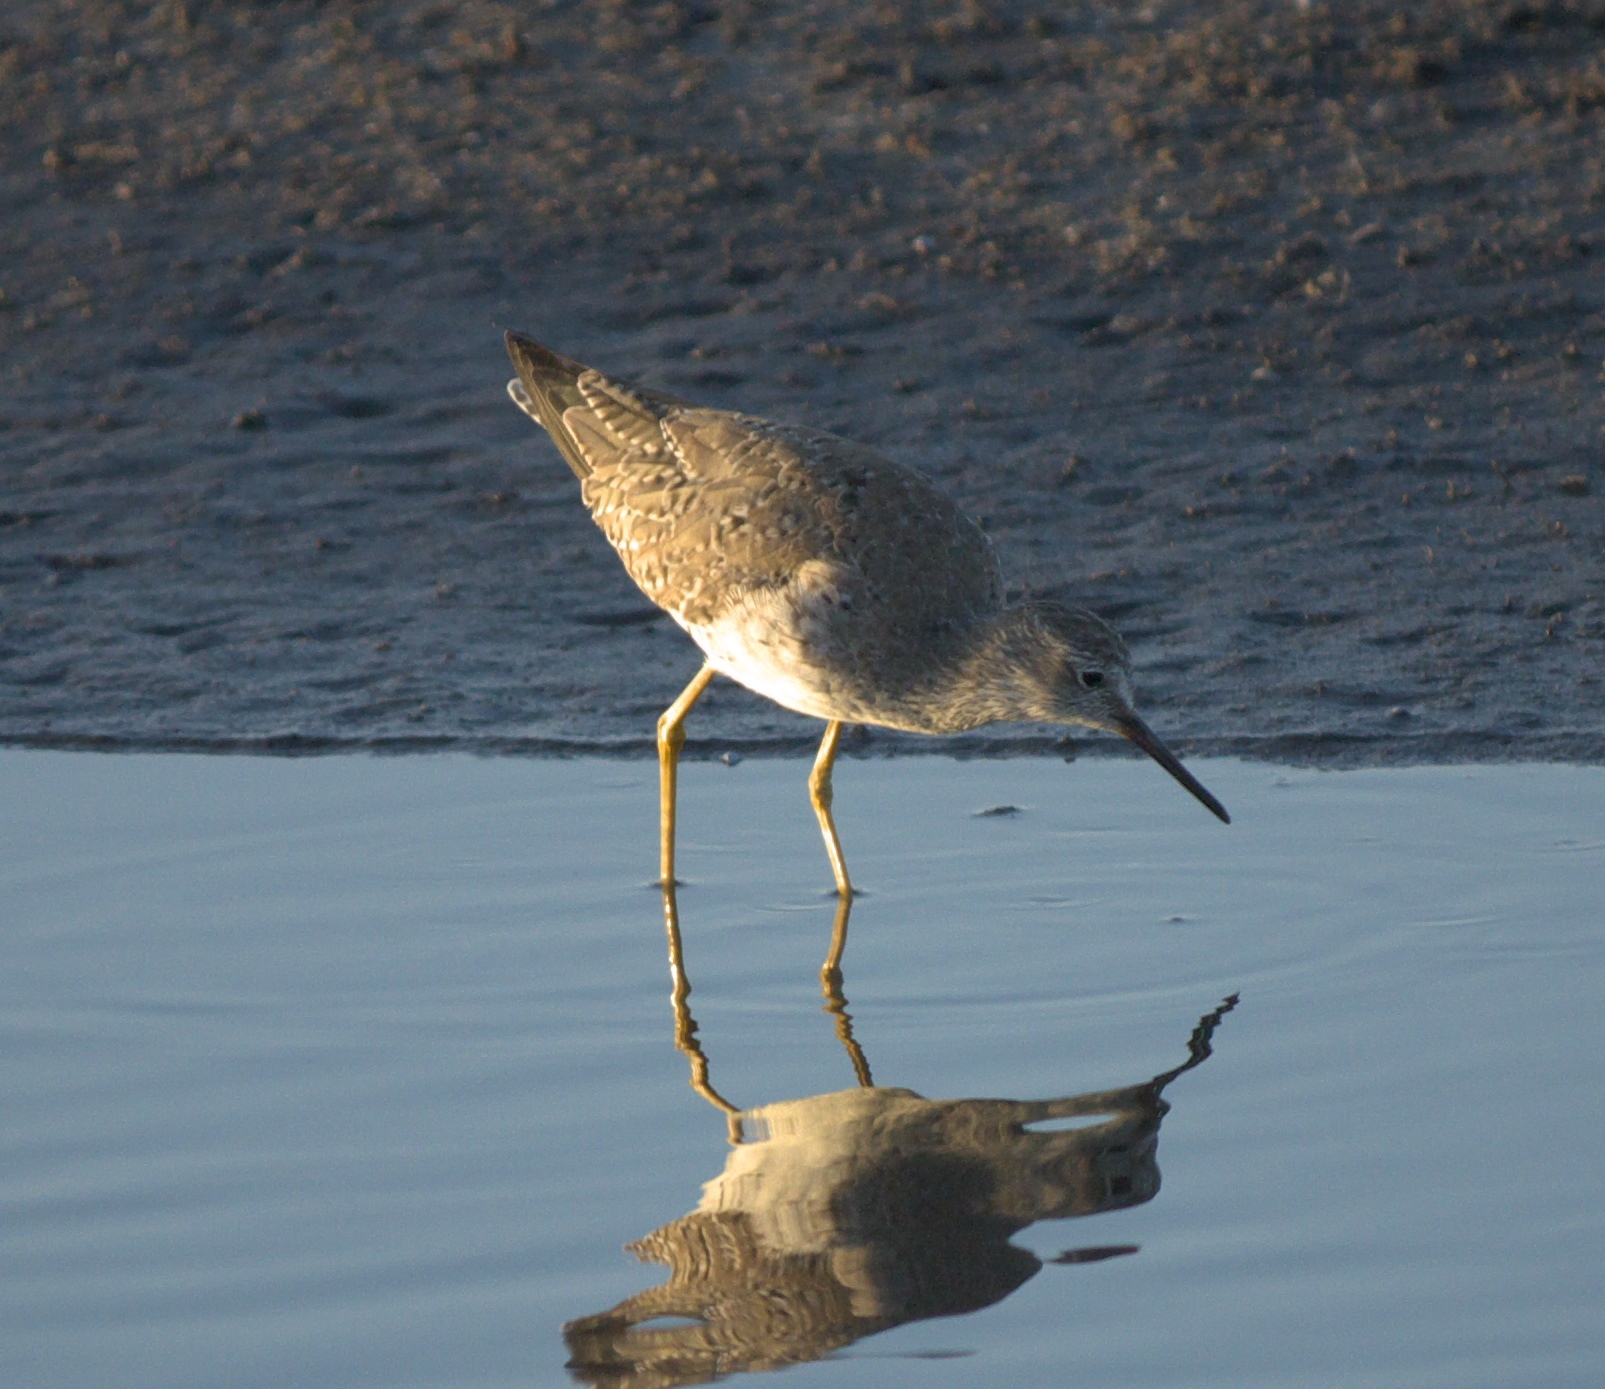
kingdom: Animalia
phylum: Chordata
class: Aves
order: Charadriiformes
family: Scolopacidae
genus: Tringa
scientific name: Tringa melanoleuca
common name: Greater yellowlegs
